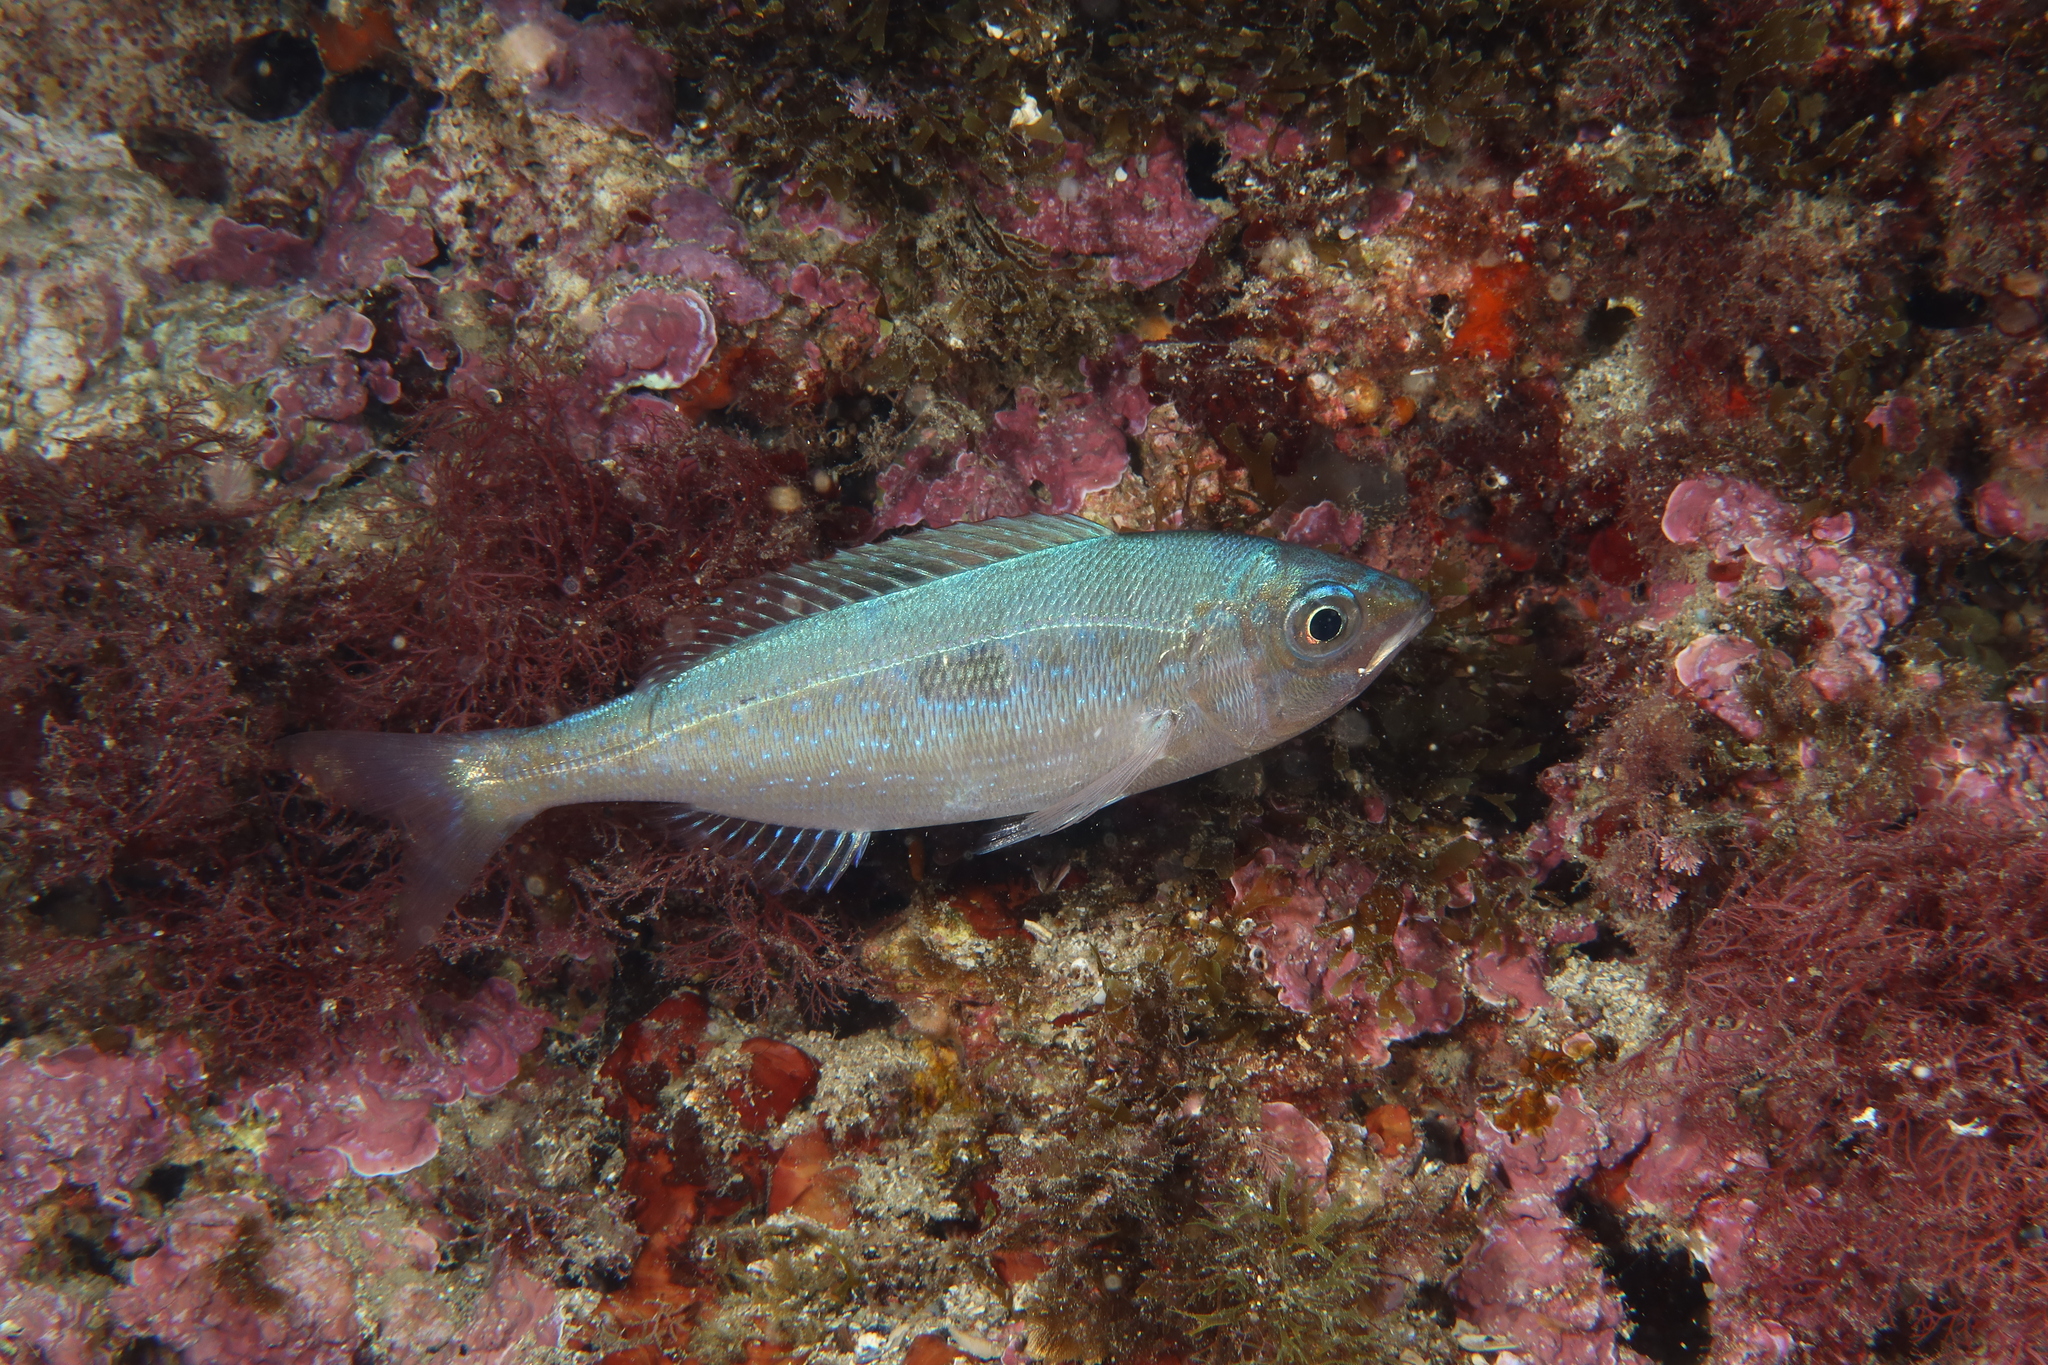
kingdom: Animalia
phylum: Chordata
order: Perciformes
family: Sparidae
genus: Spicara
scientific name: Spicara maena
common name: Blotched picarel
